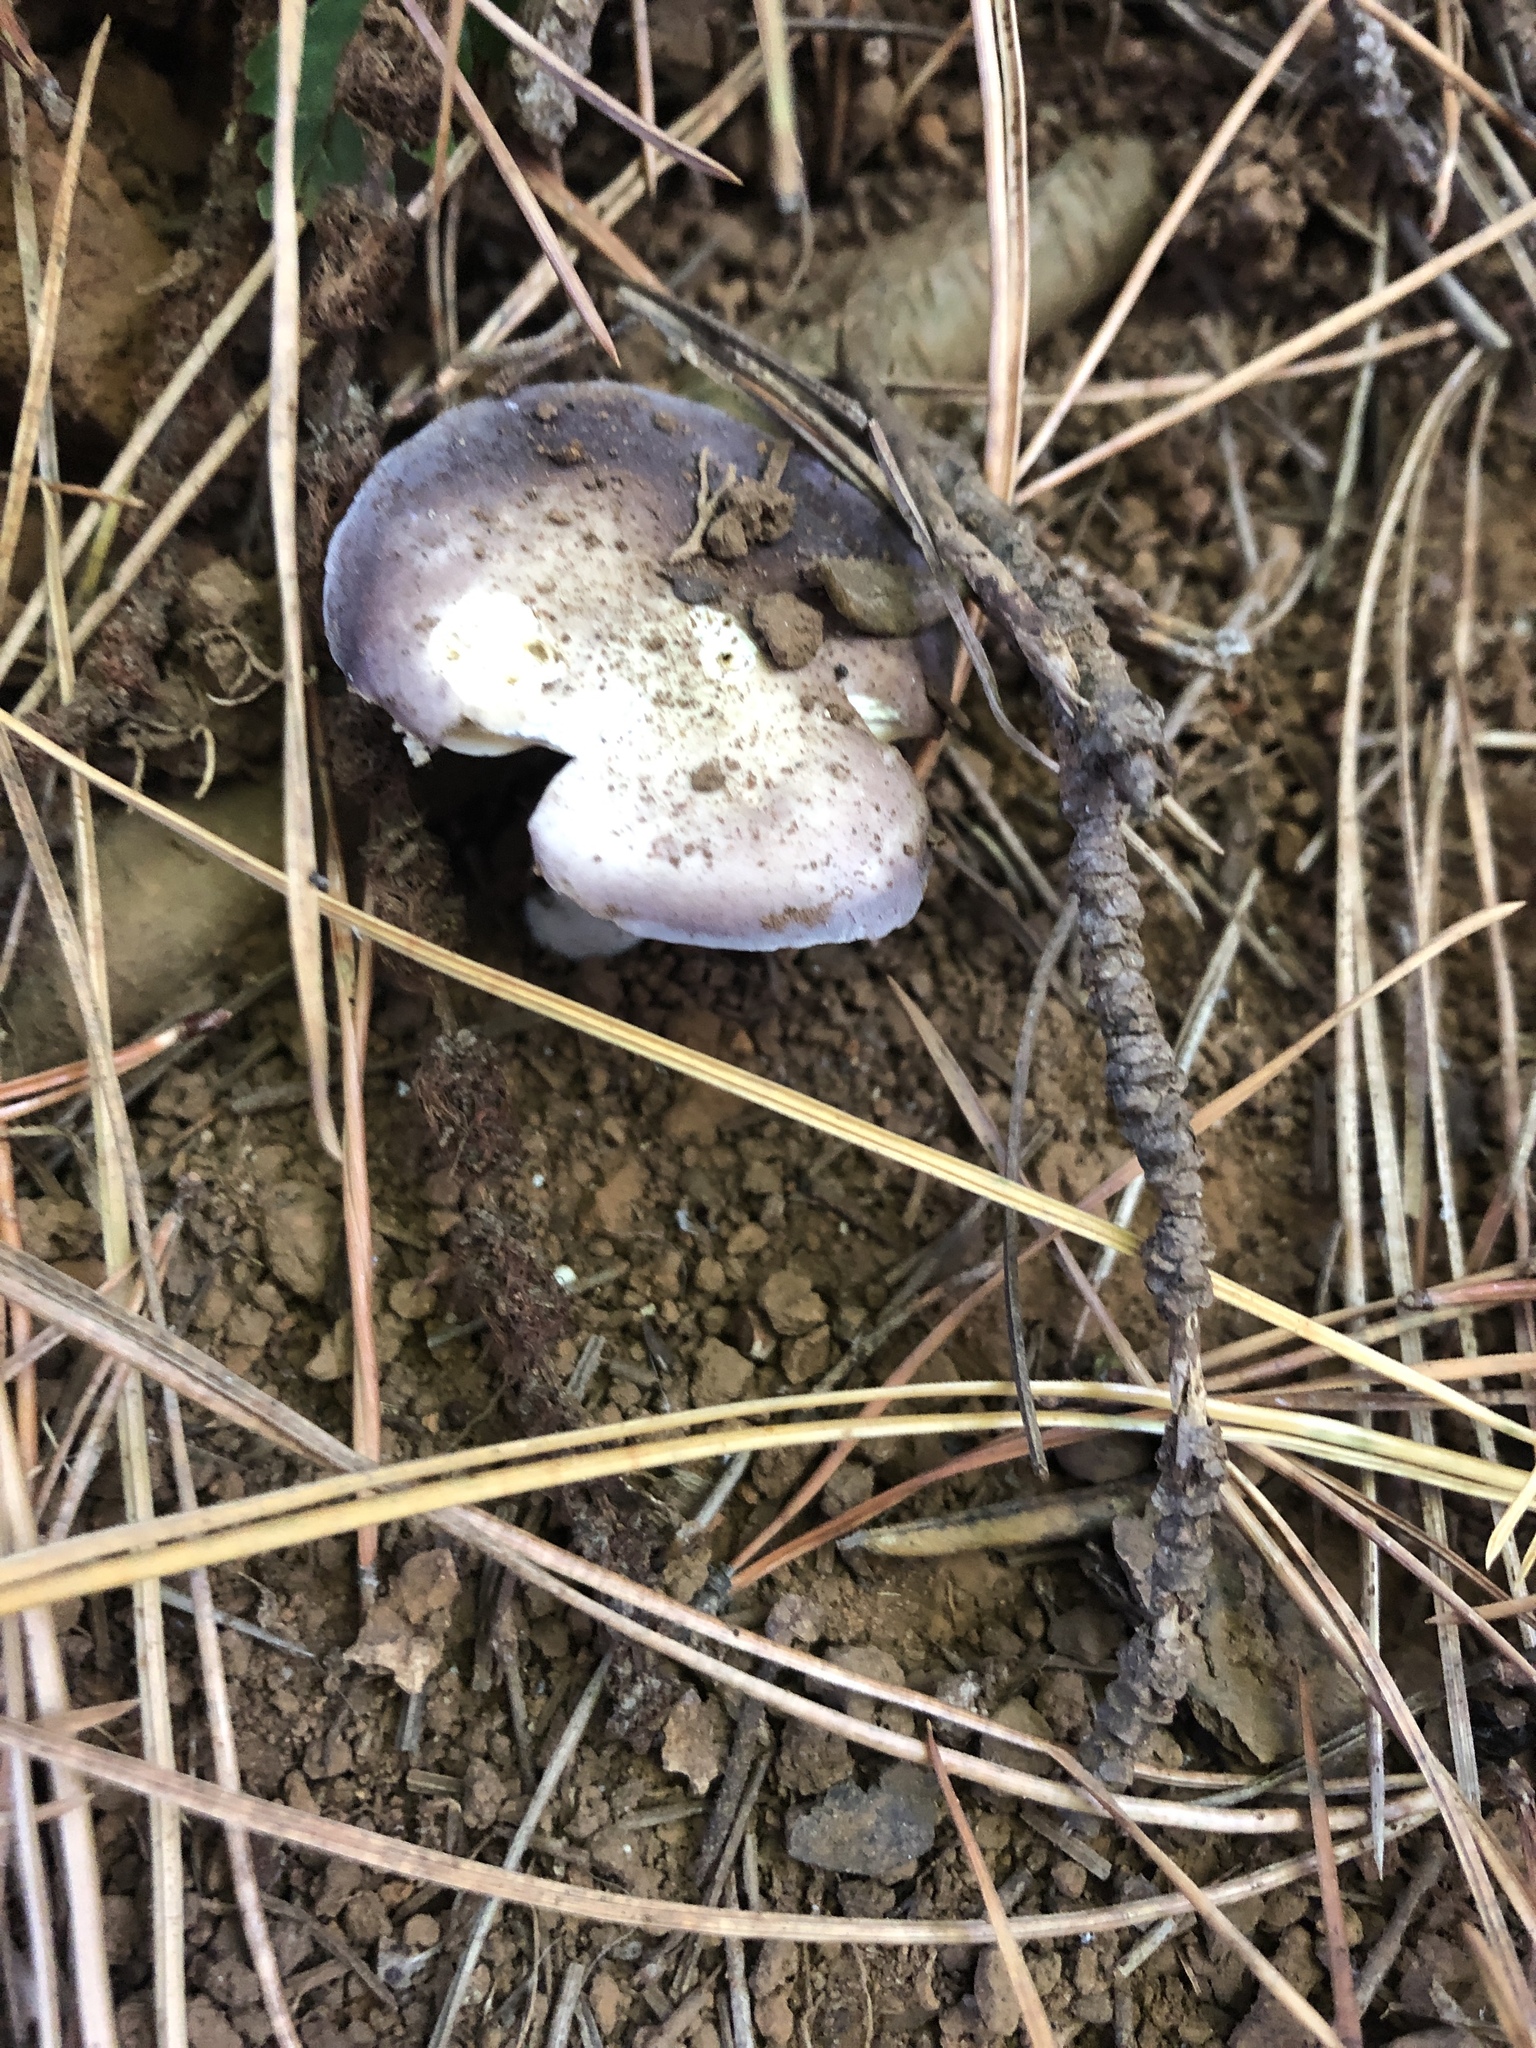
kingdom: Fungi
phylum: Basidiomycota
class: Agaricomycetes
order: Russulales
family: Russulaceae
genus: Russula
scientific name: Russula capensis
